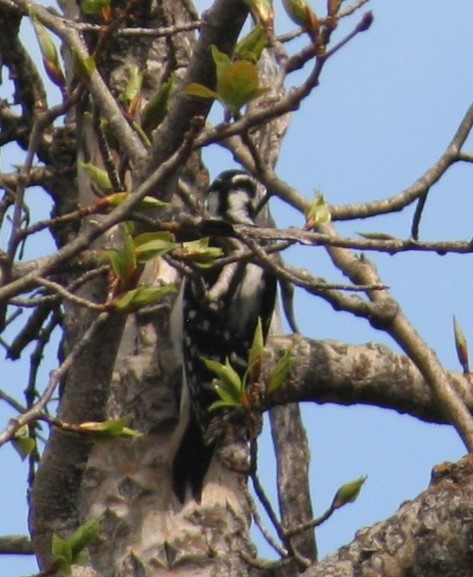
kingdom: Animalia
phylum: Chordata
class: Aves
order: Piciformes
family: Picidae
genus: Leuconotopicus
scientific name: Leuconotopicus villosus
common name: Hairy woodpecker
